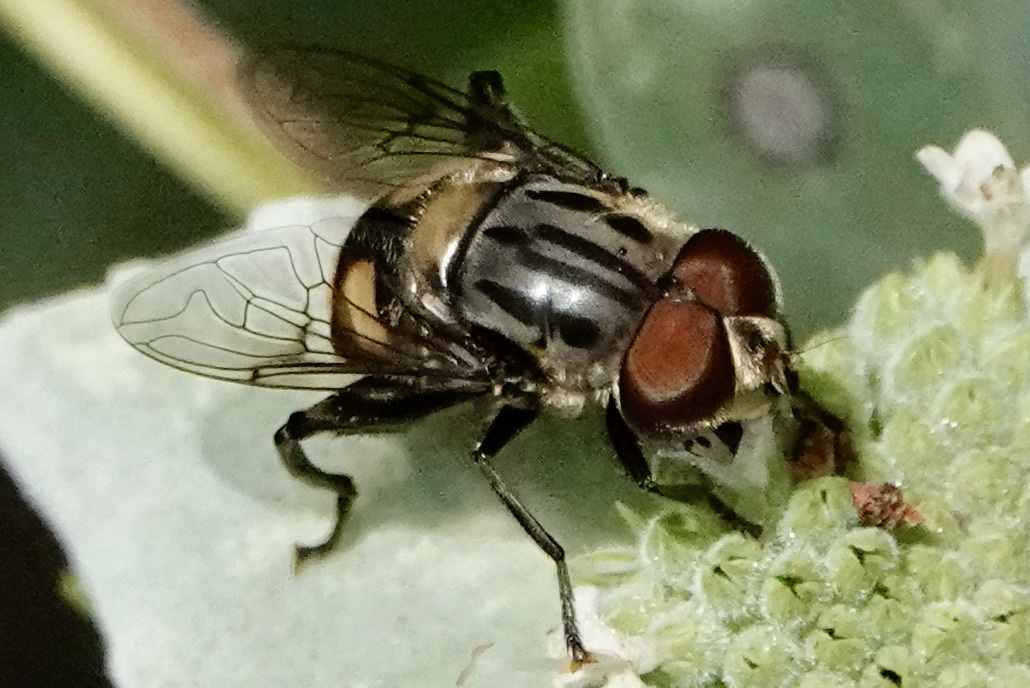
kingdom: Animalia
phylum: Arthropoda
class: Insecta
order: Diptera
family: Syrphidae
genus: Palpada
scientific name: Palpada furcata
